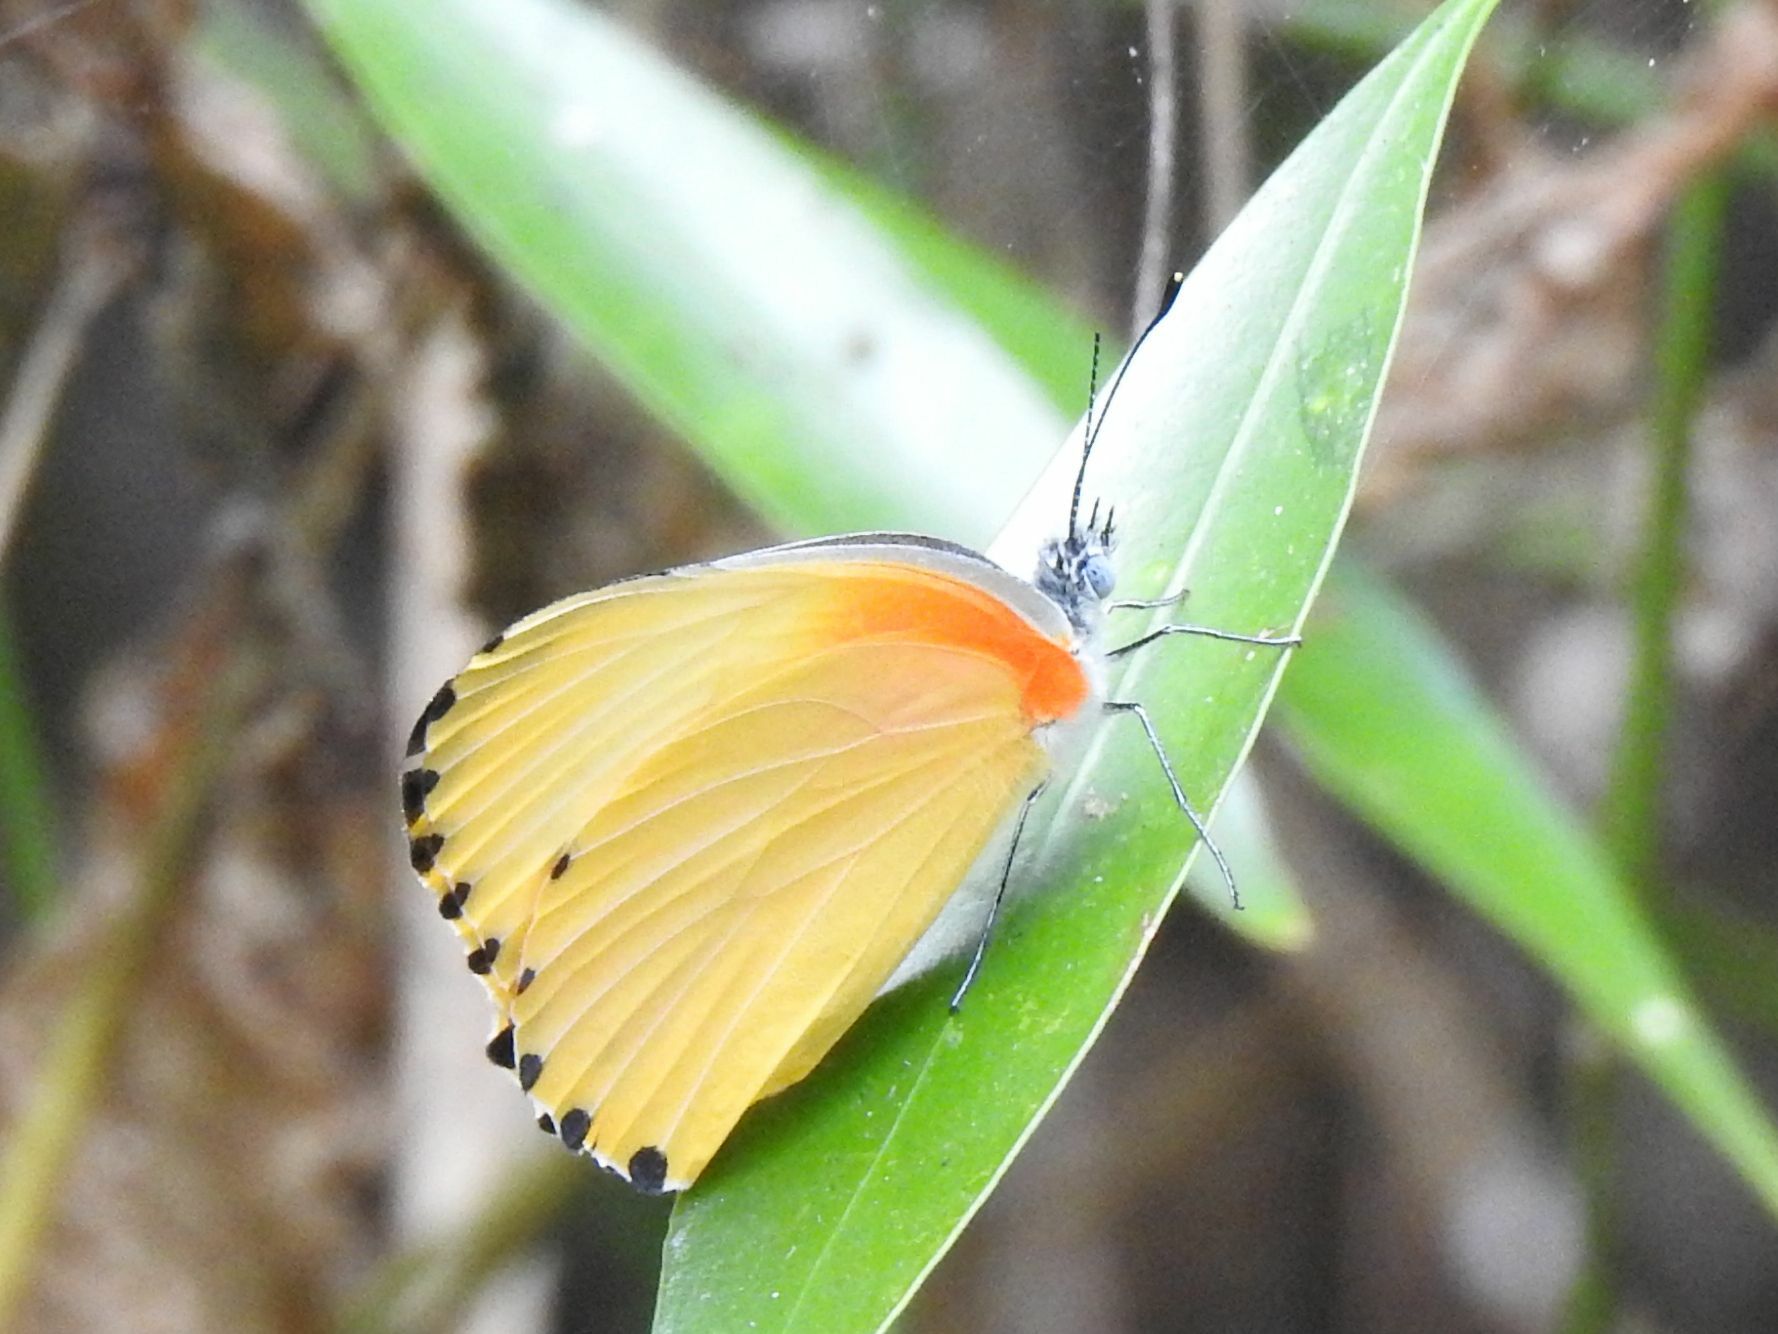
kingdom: Animalia
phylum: Arthropoda
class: Insecta
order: Lepidoptera
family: Pieridae
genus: Mylothris
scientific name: Mylothris agathina
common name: Eastern dotted border
